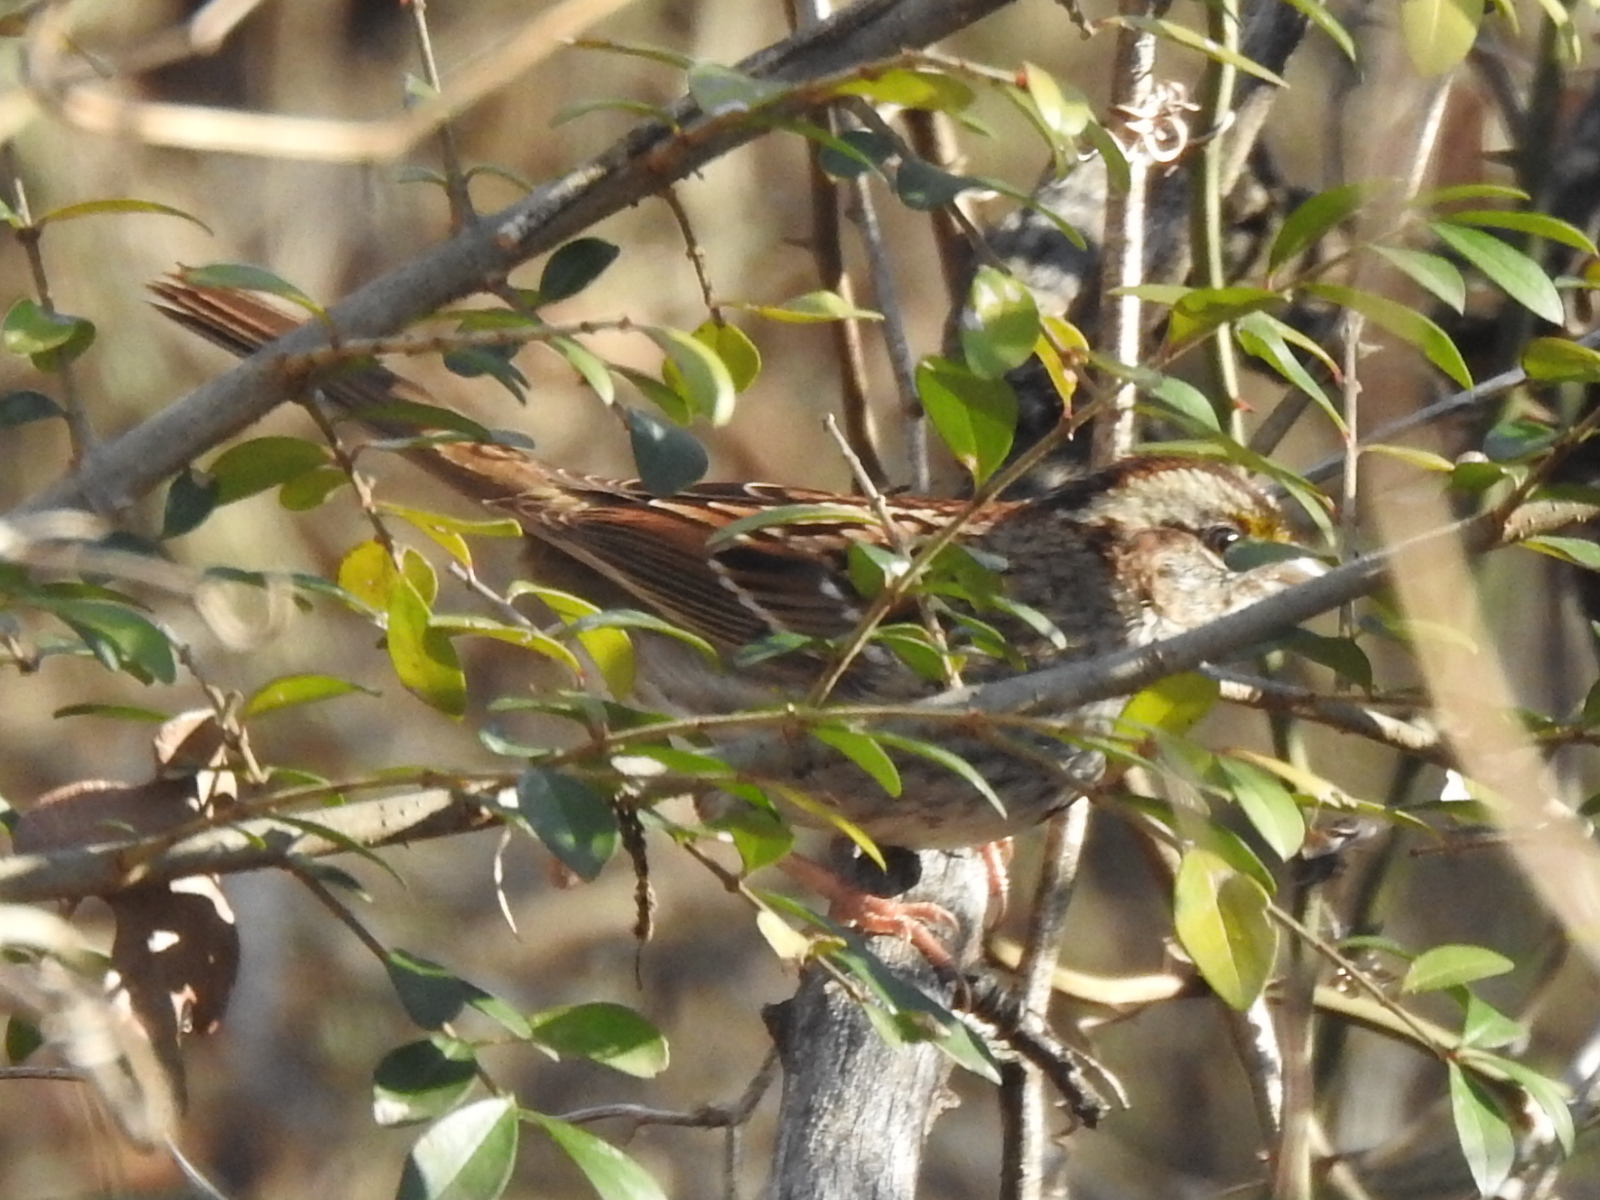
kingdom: Animalia
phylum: Chordata
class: Aves
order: Passeriformes
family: Passerellidae
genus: Zonotrichia
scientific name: Zonotrichia albicollis
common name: White-throated sparrow
